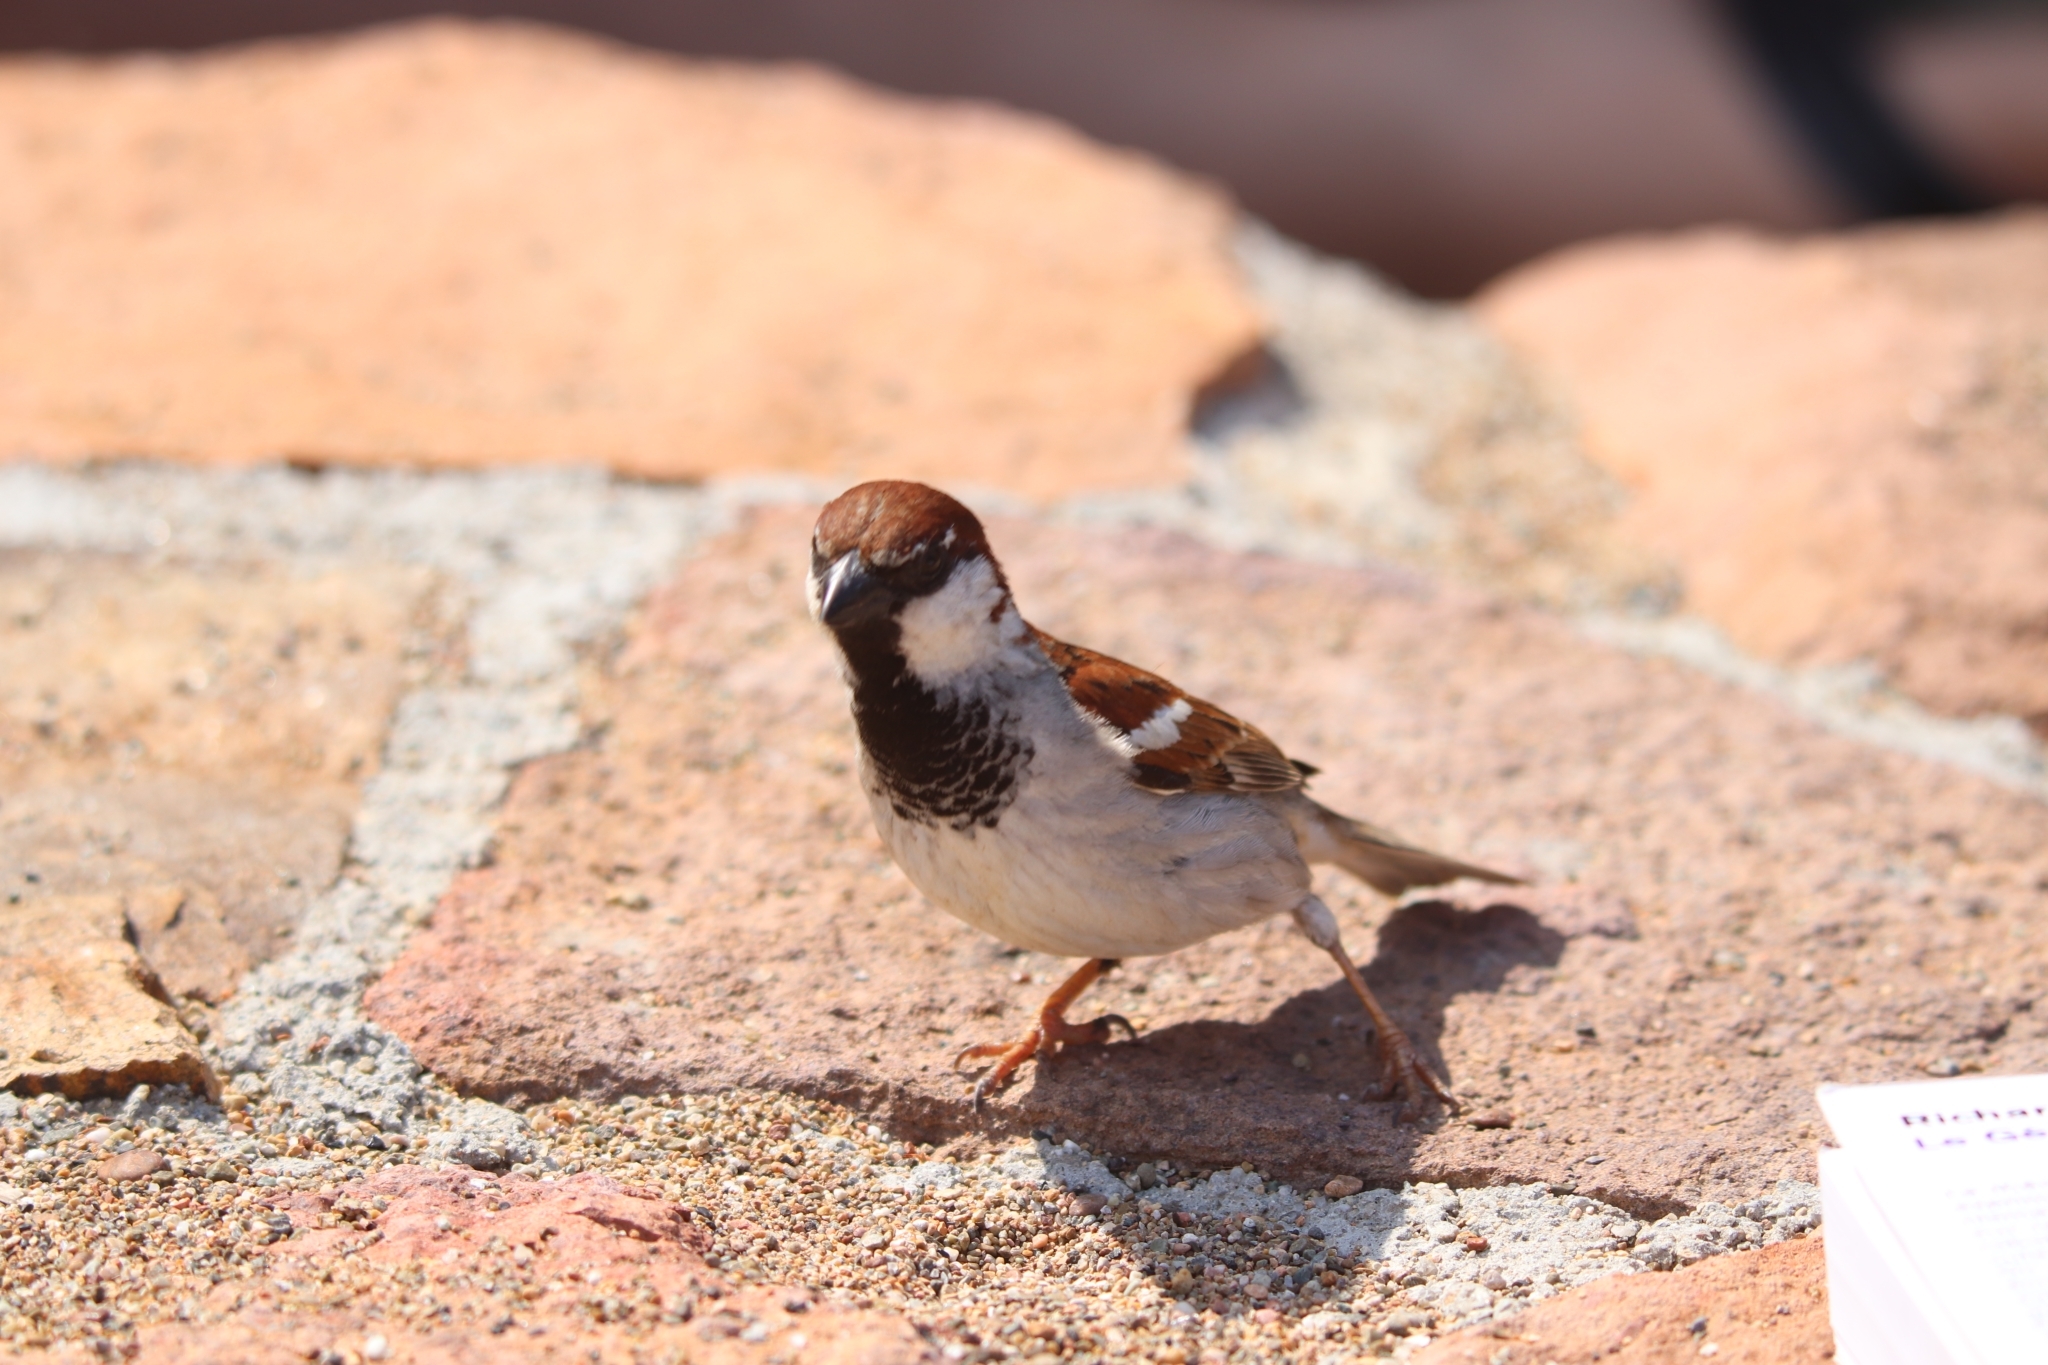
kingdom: Animalia
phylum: Chordata
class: Aves
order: Passeriformes
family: Passeridae
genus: Passer
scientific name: Passer italiae
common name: Italian sparrow
